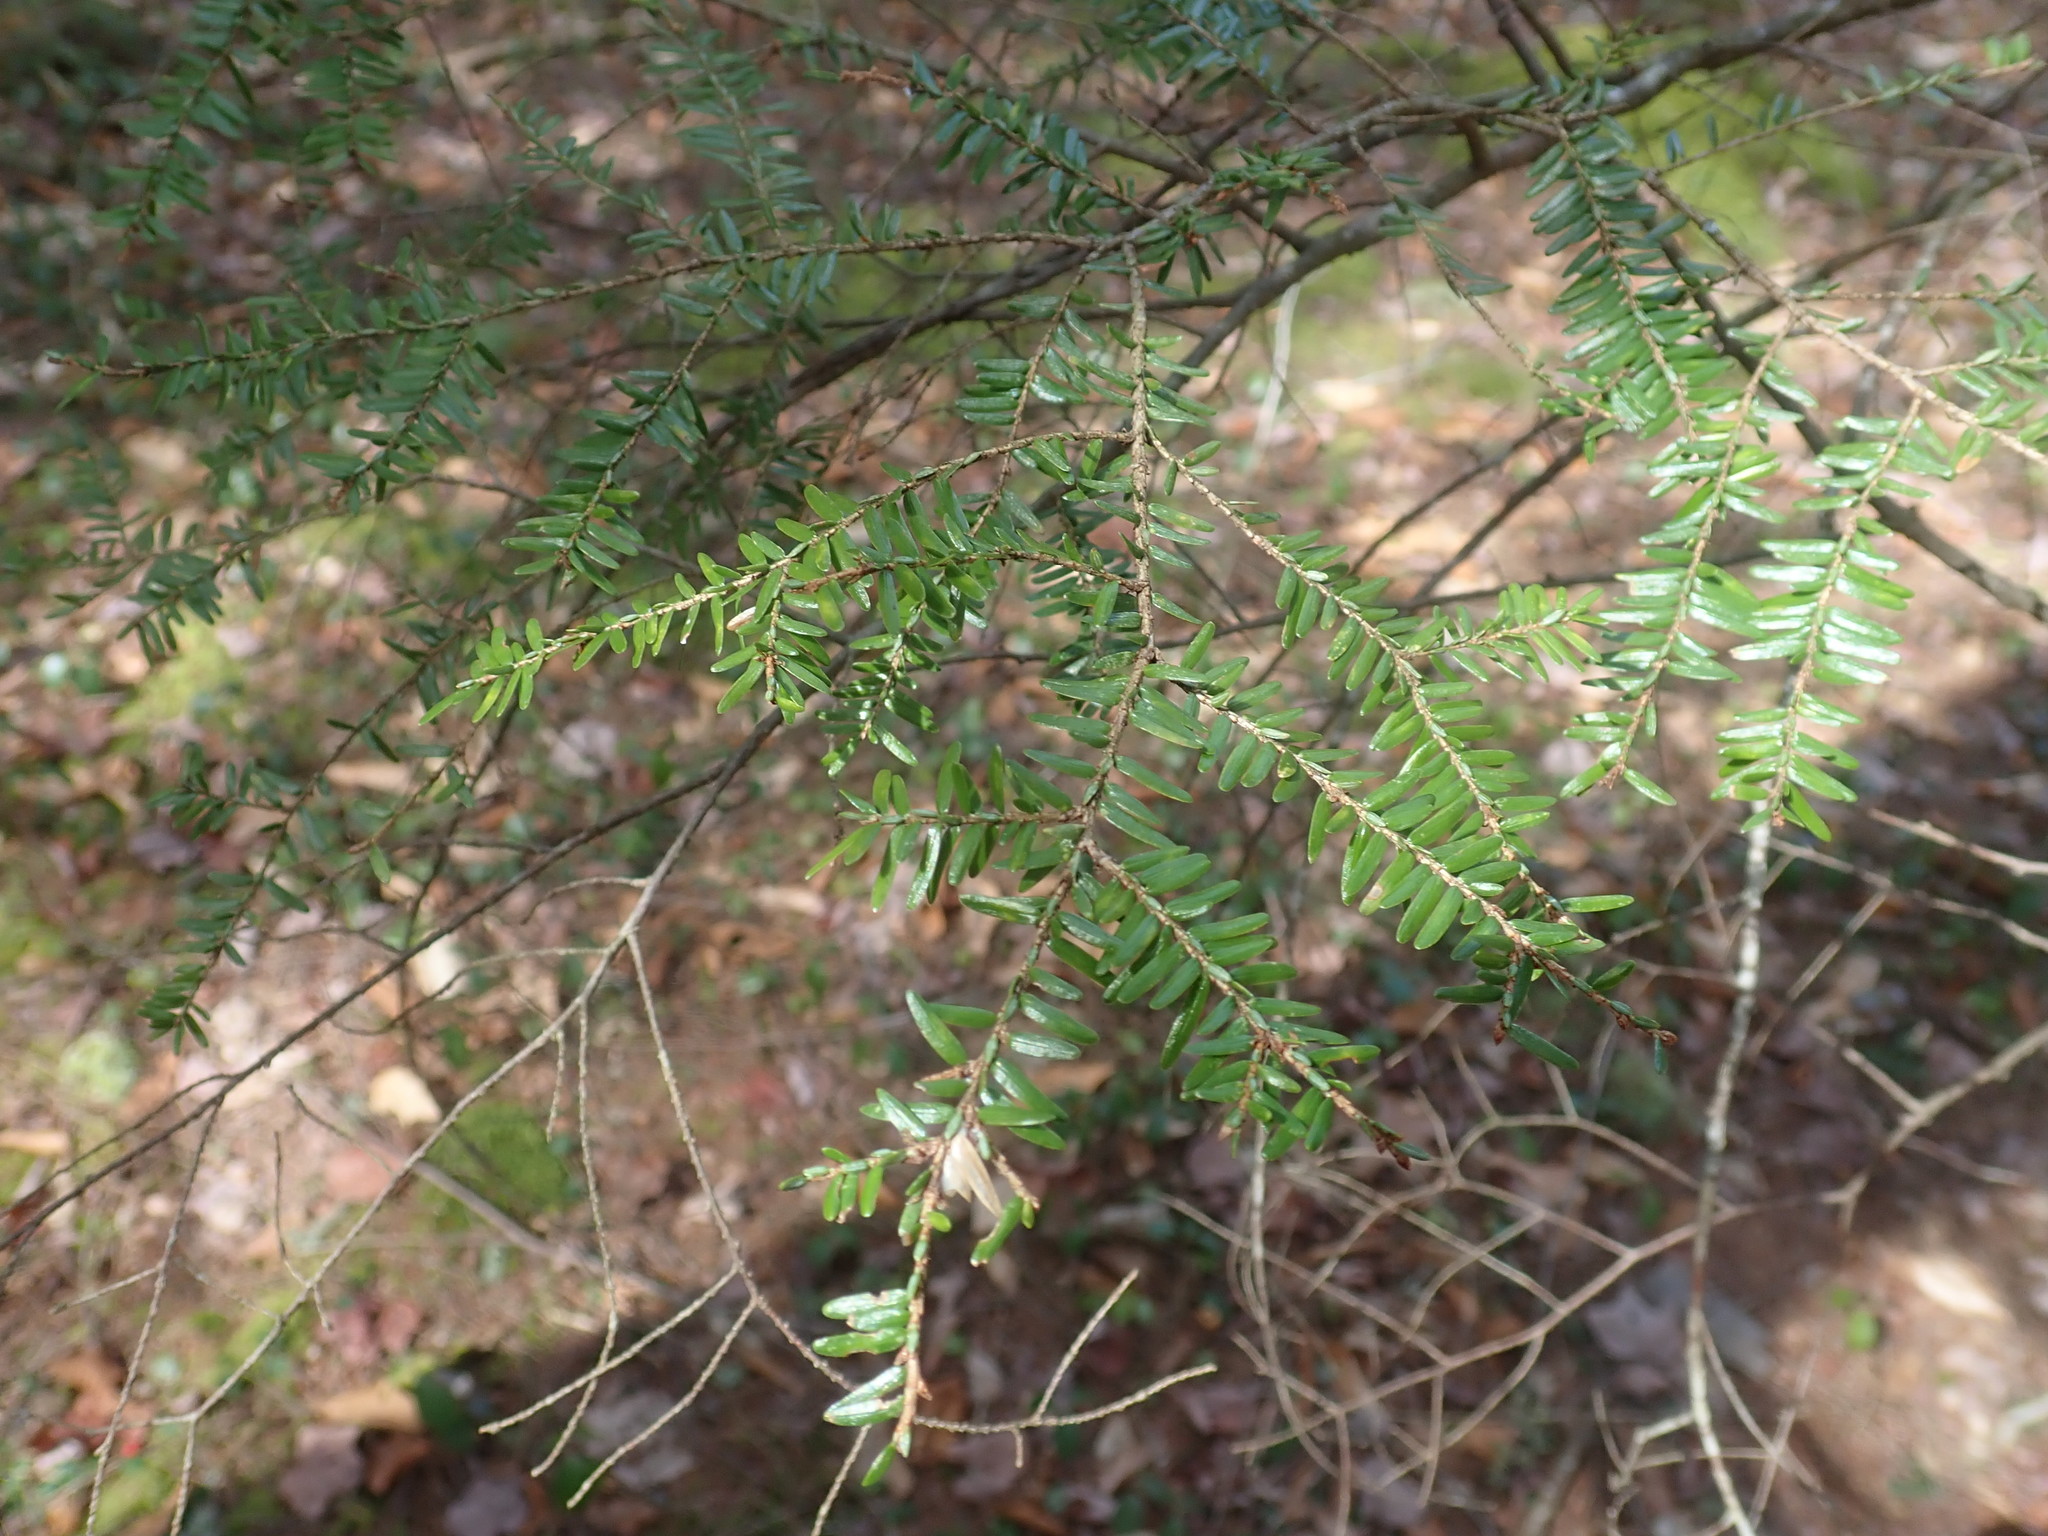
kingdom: Plantae
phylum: Tracheophyta
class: Pinopsida
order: Pinales
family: Pinaceae
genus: Tsuga
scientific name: Tsuga canadensis
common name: Eastern hemlock
